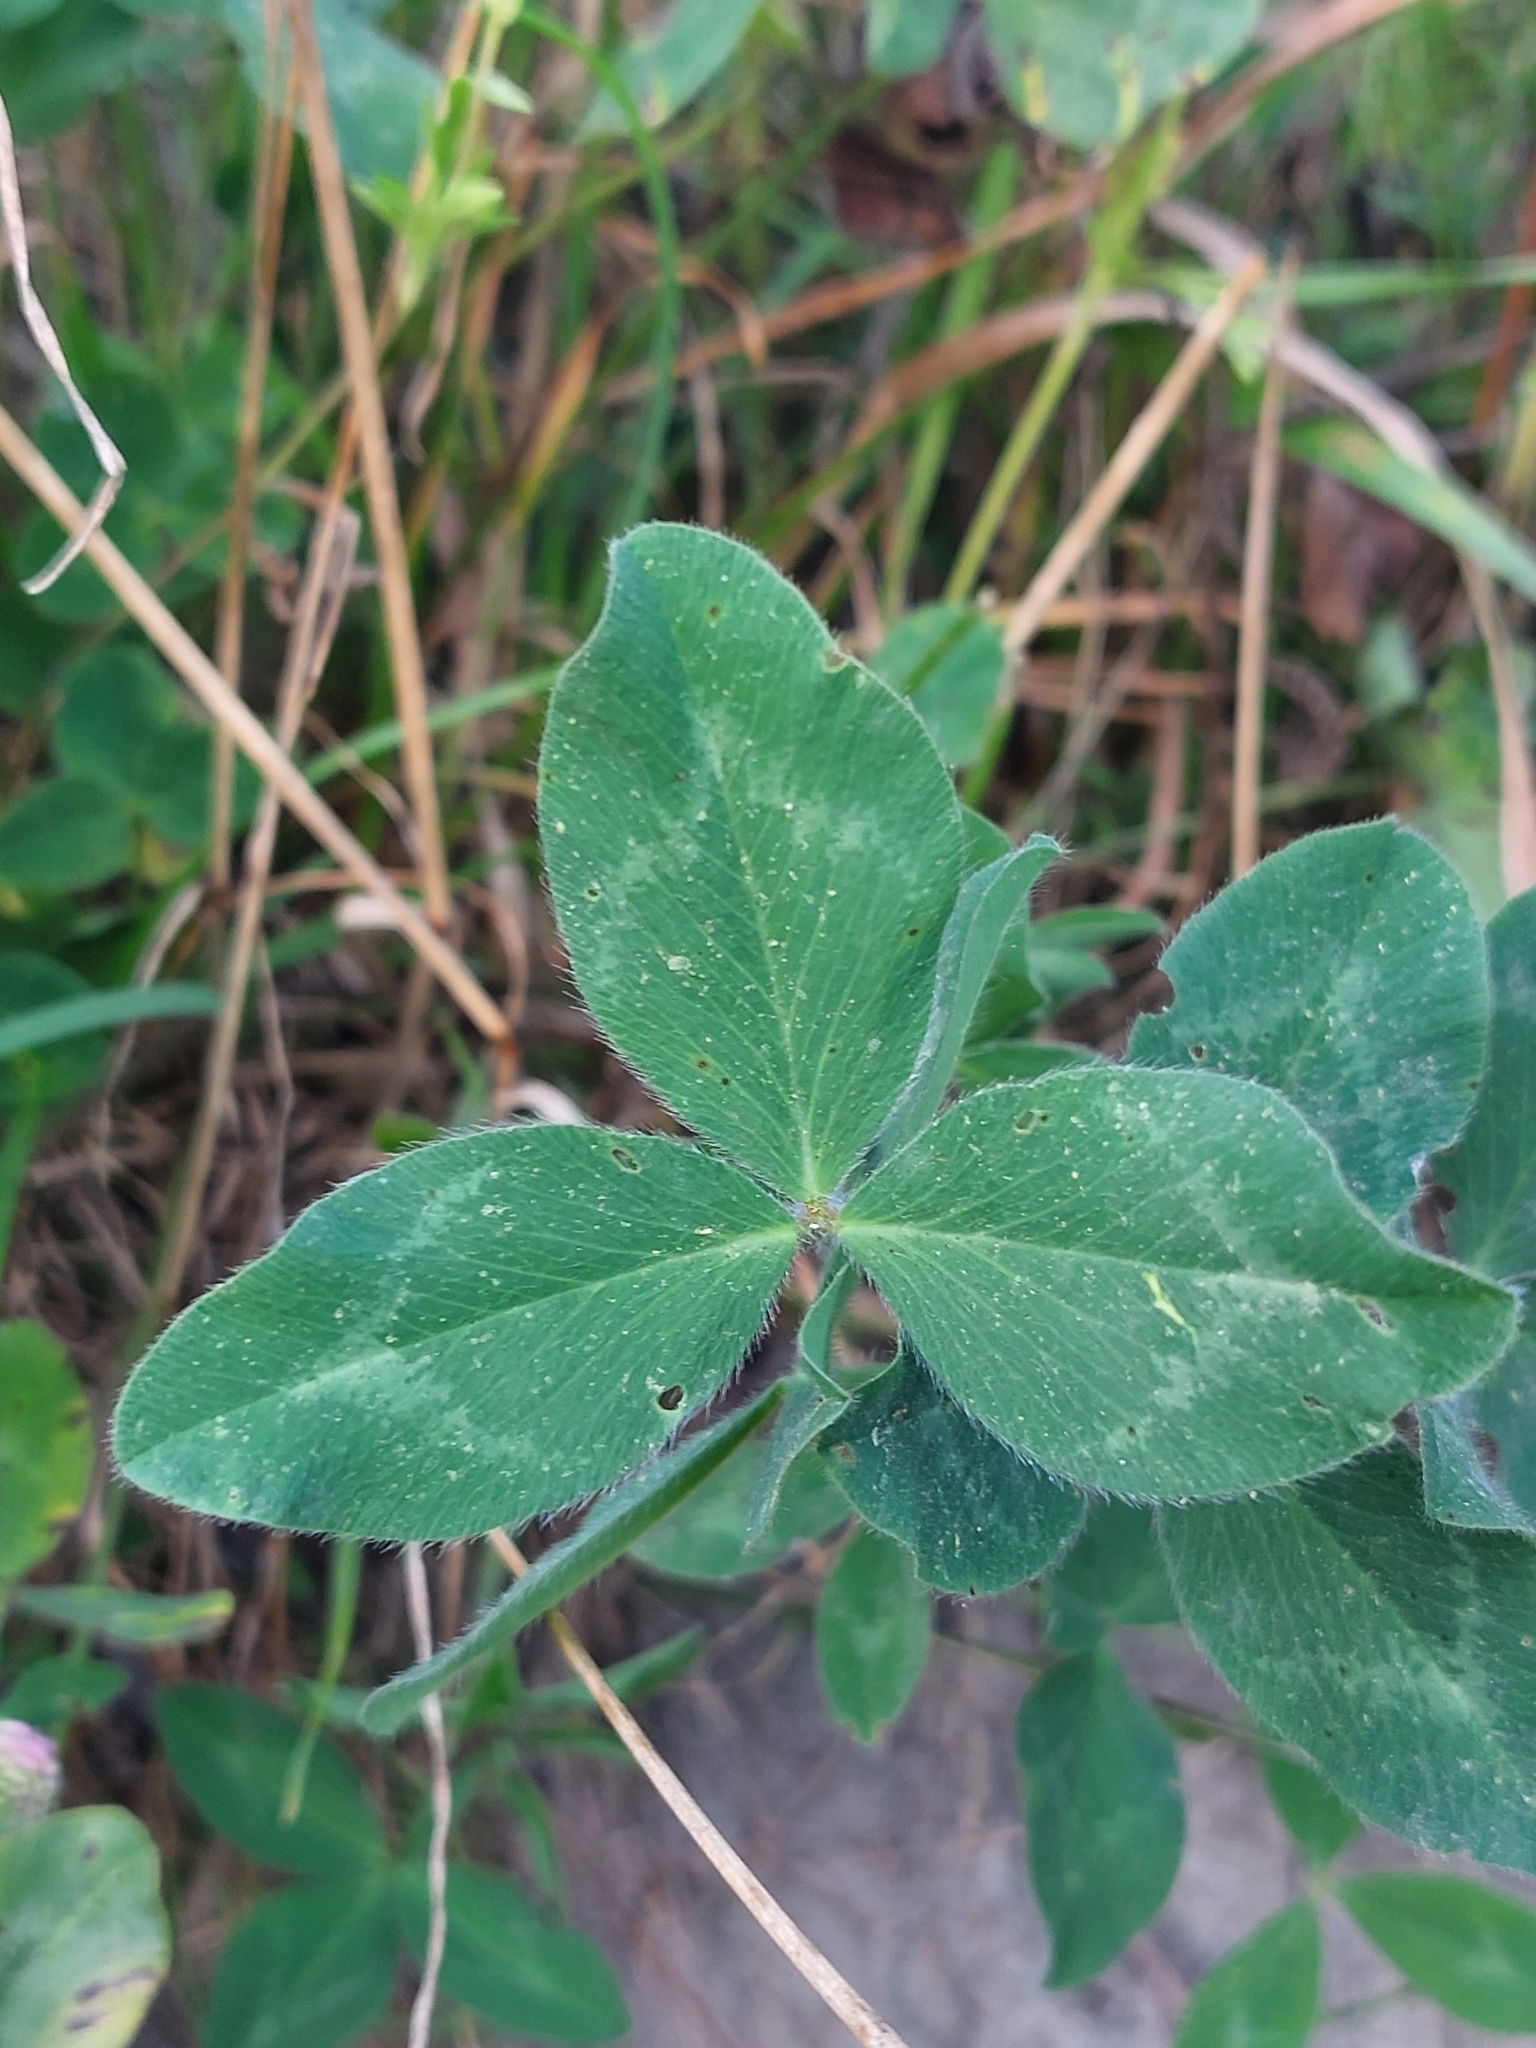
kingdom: Plantae
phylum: Tracheophyta
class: Magnoliopsida
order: Fabales
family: Fabaceae
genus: Trifolium
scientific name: Trifolium pratense
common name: Red clover
